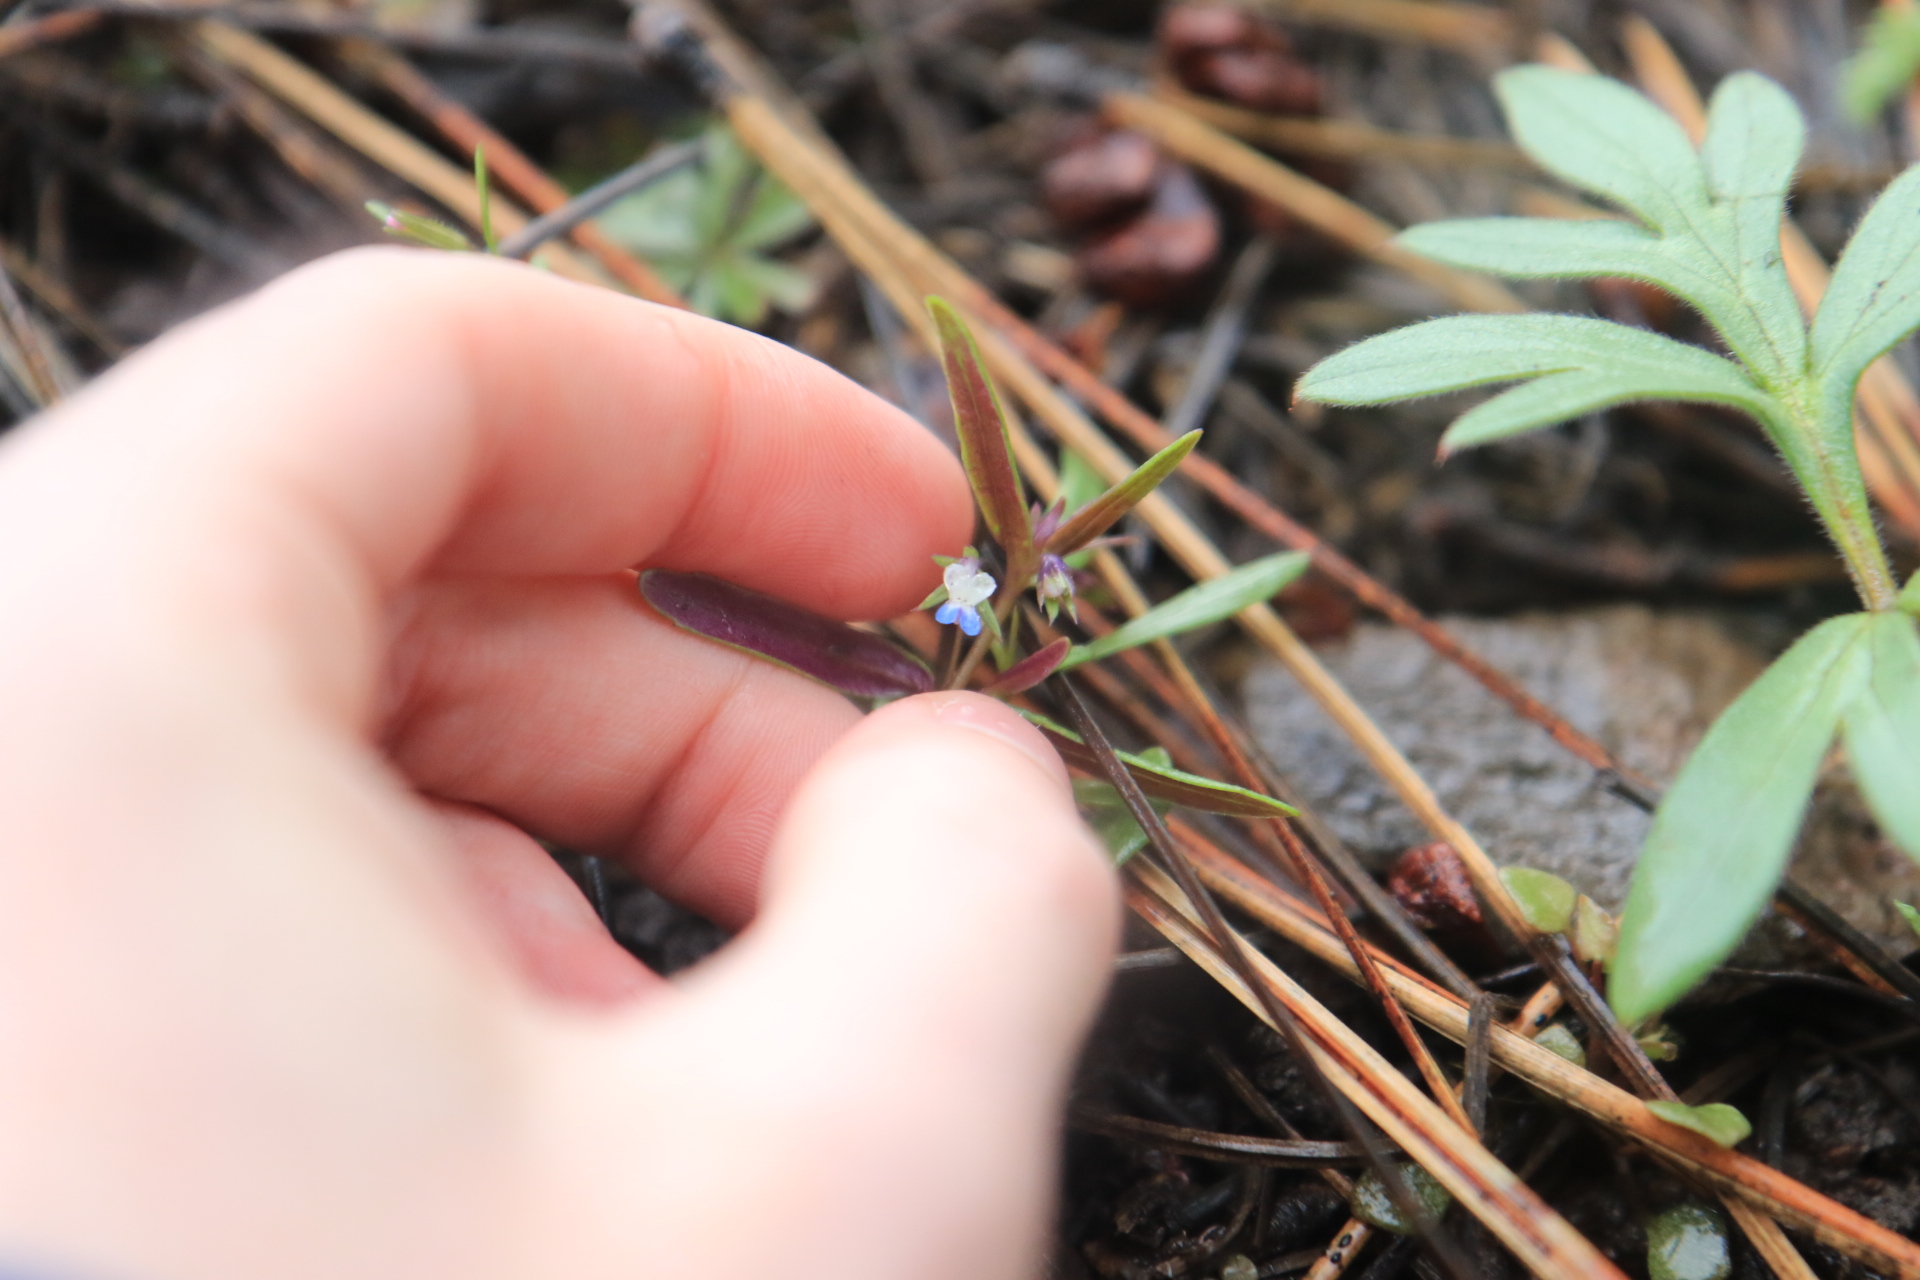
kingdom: Plantae
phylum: Tracheophyta
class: Magnoliopsida
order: Lamiales
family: Plantaginaceae
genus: Collinsia
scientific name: Collinsia parviflora
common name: Blue-lips
